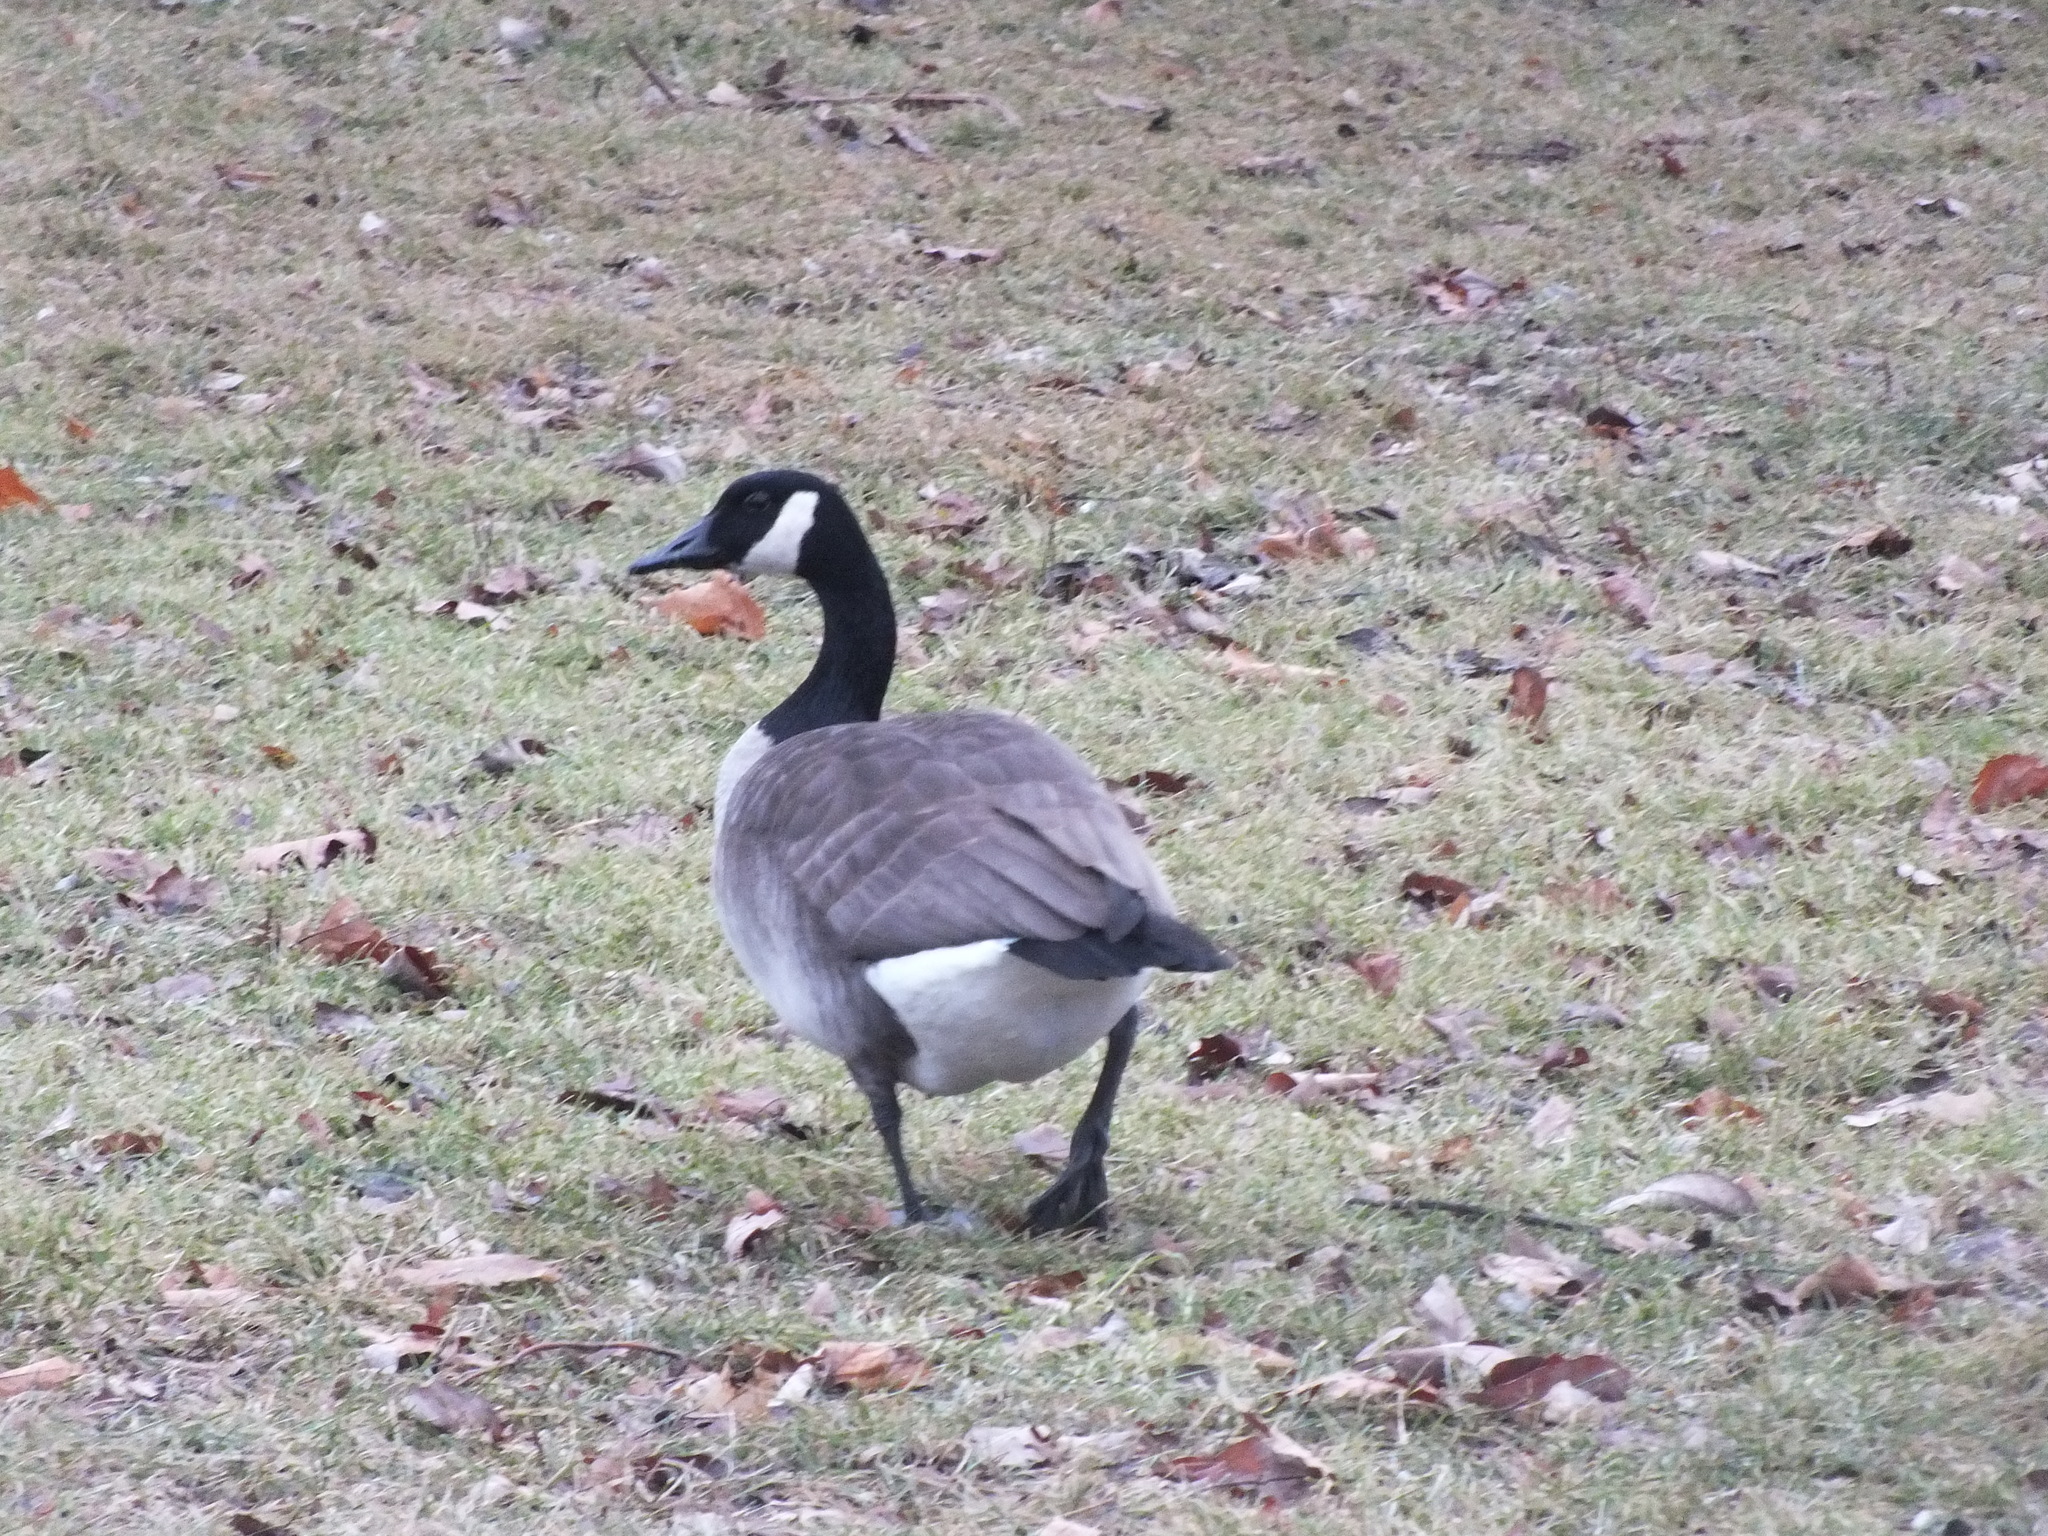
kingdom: Animalia
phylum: Chordata
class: Aves
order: Anseriformes
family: Anatidae
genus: Branta
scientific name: Branta canadensis
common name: Canada goose
